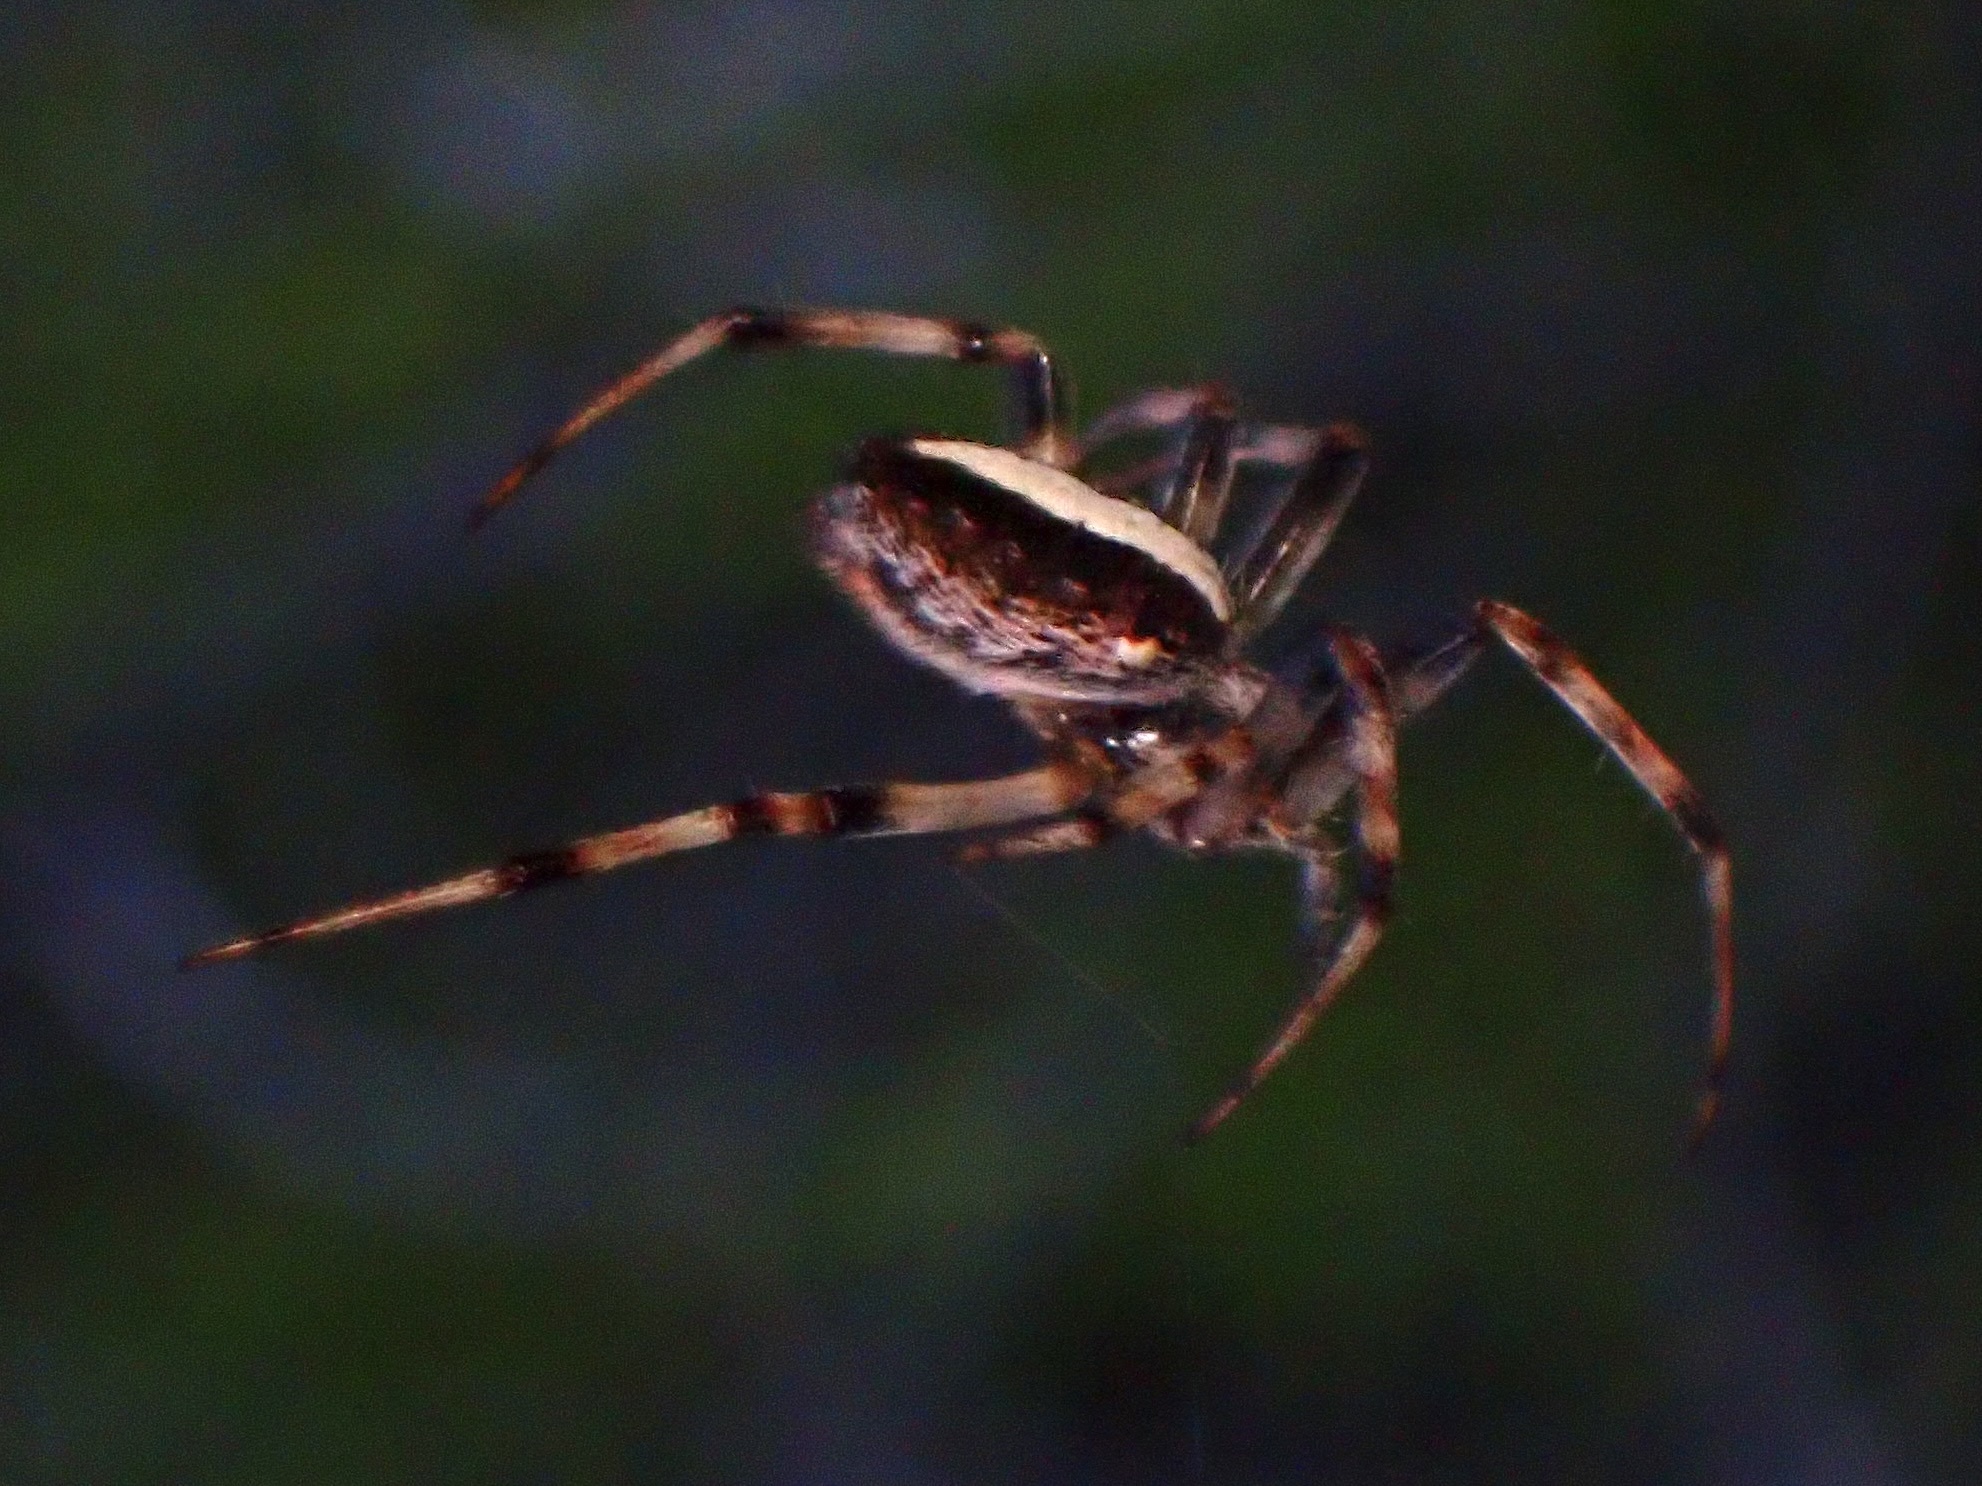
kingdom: Animalia
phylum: Arthropoda
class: Arachnida
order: Araneae
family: Araneidae
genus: Neoscona
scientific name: Neoscona theisi
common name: Spider
